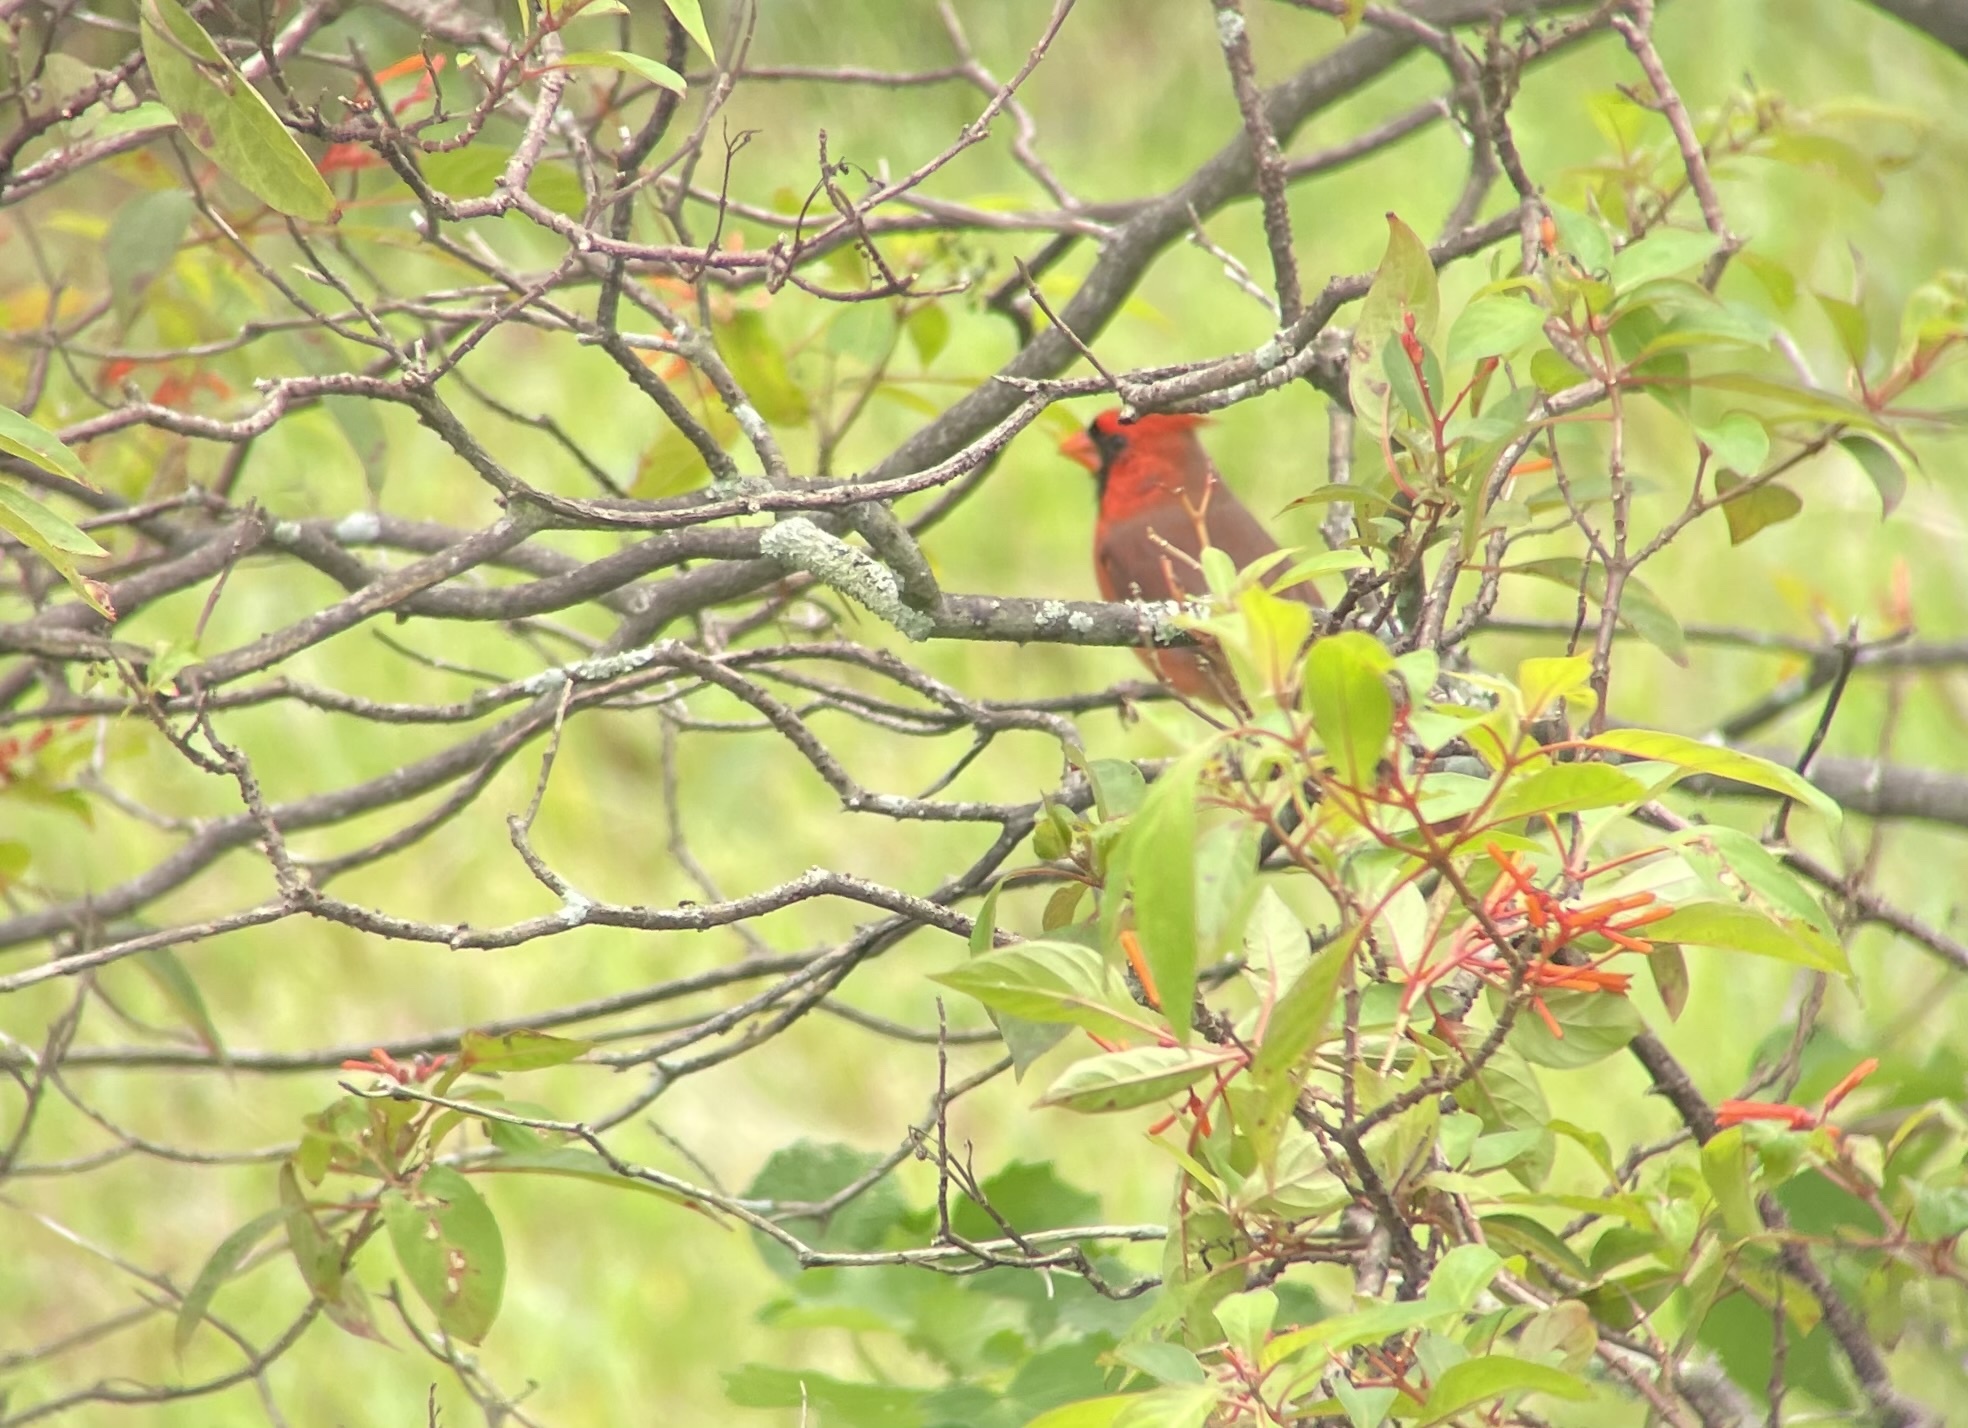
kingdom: Animalia
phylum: Chordata
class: Aves
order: Passeriformes
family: Cardinalidae
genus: Cardinalis
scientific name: Cardinalis cardinalis
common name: Northern cardinal
